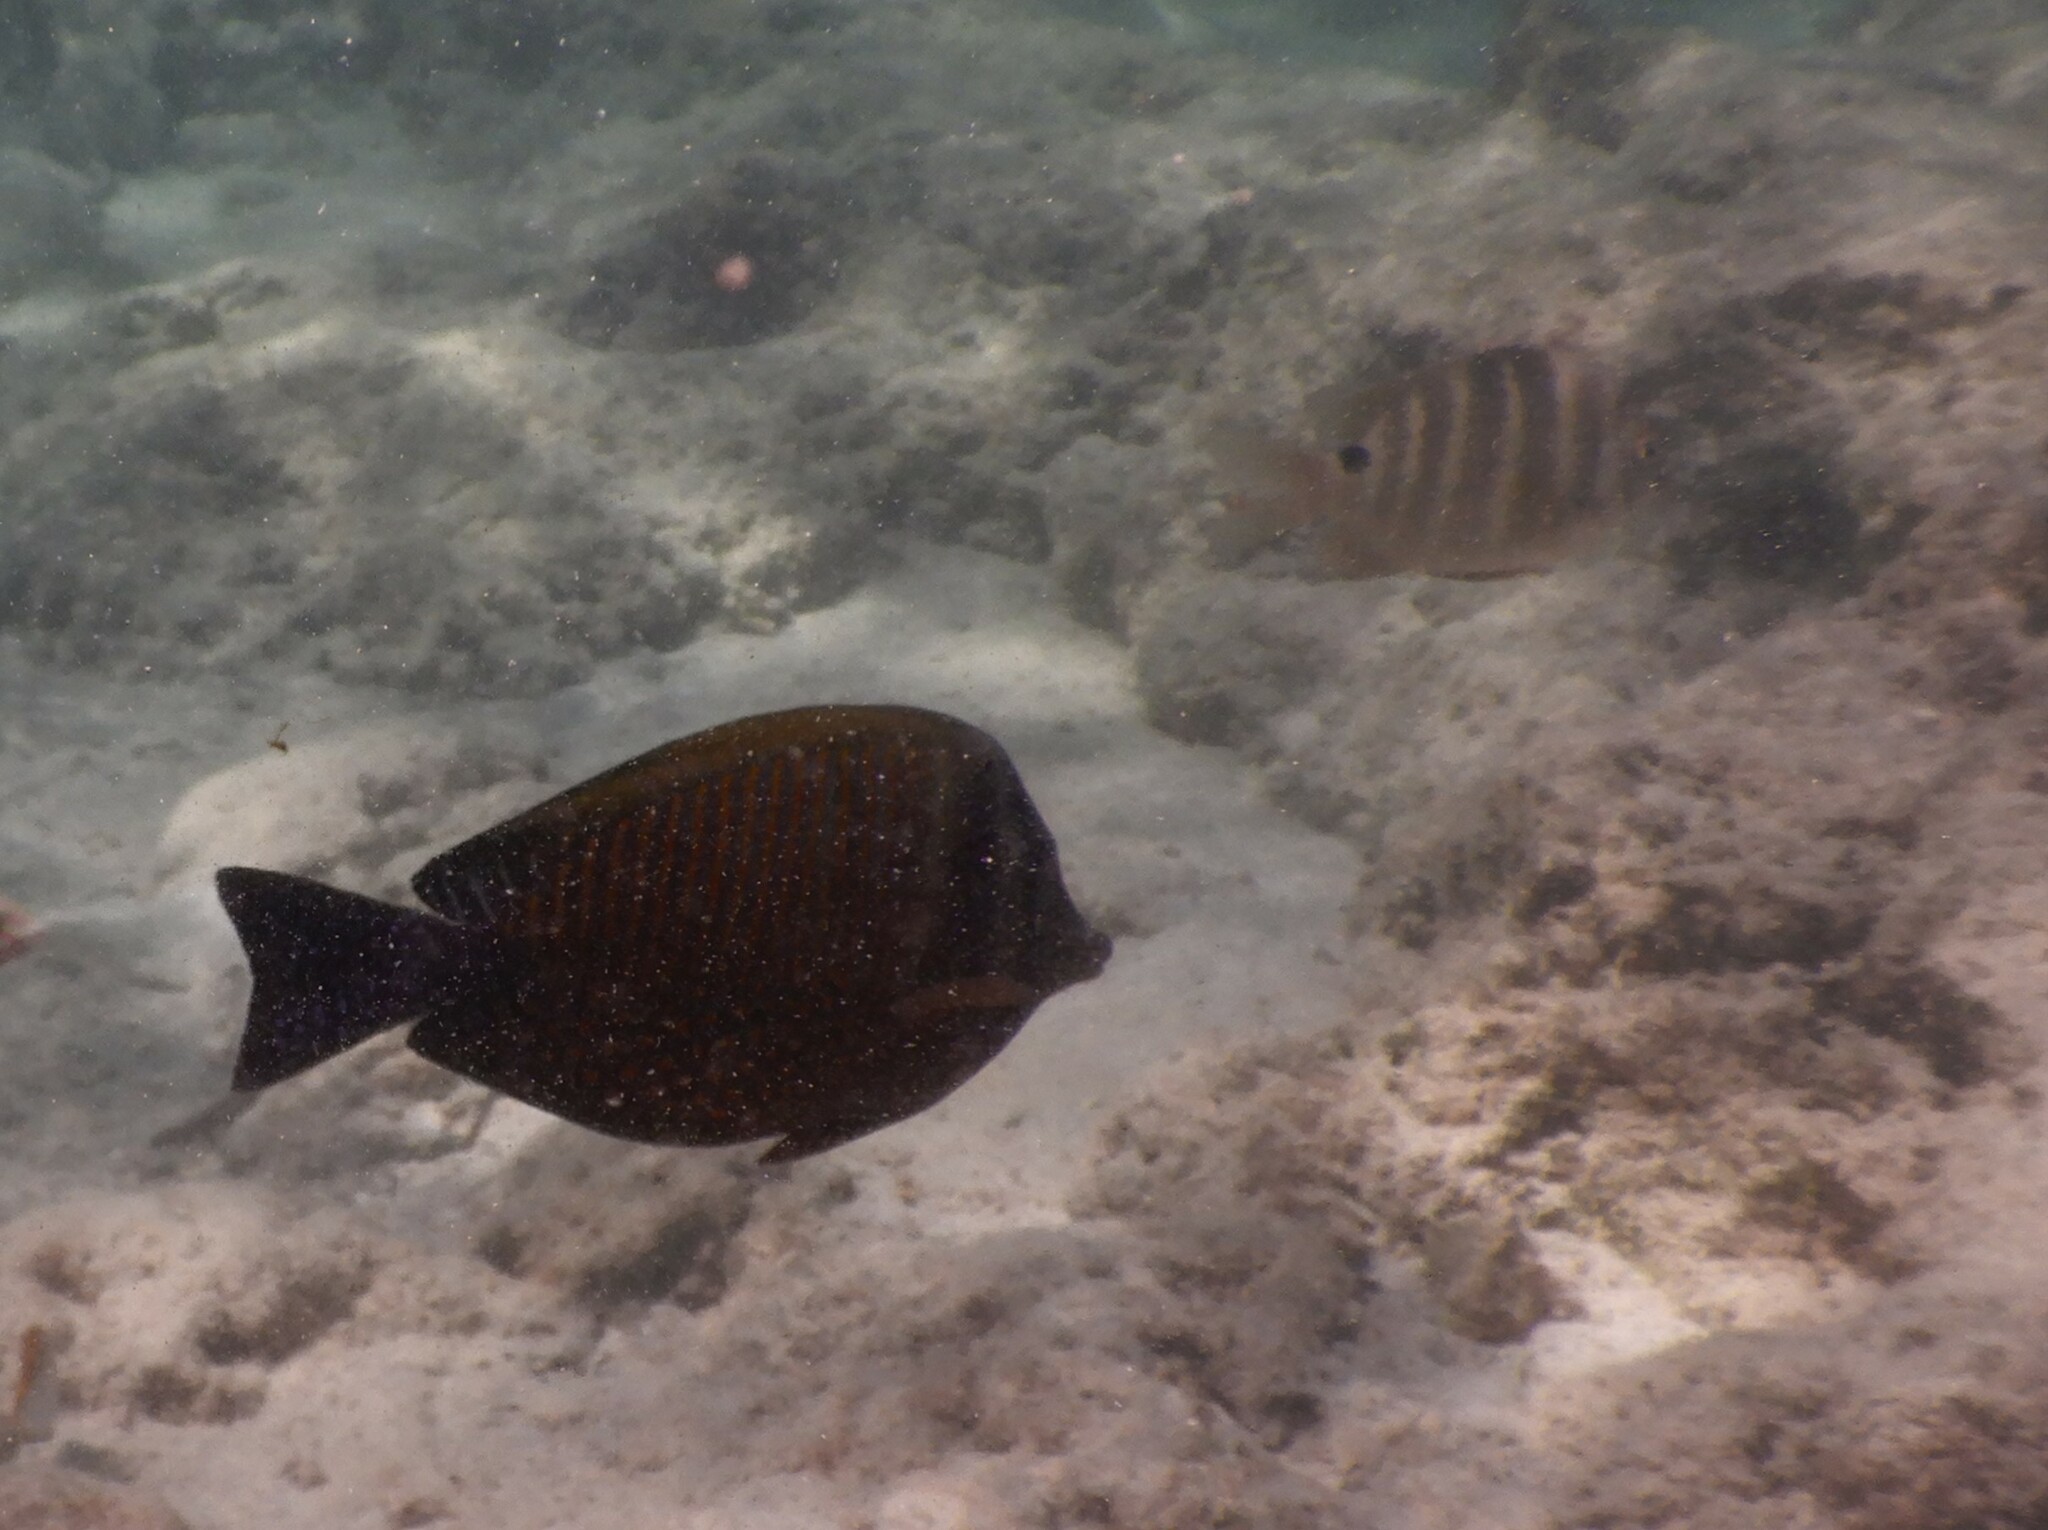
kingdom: Animalia
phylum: Chordata
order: Perciformes
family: Pomacentridae
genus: Abudefduf
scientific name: Abudefduf sordidus
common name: Blackspot sergeant
